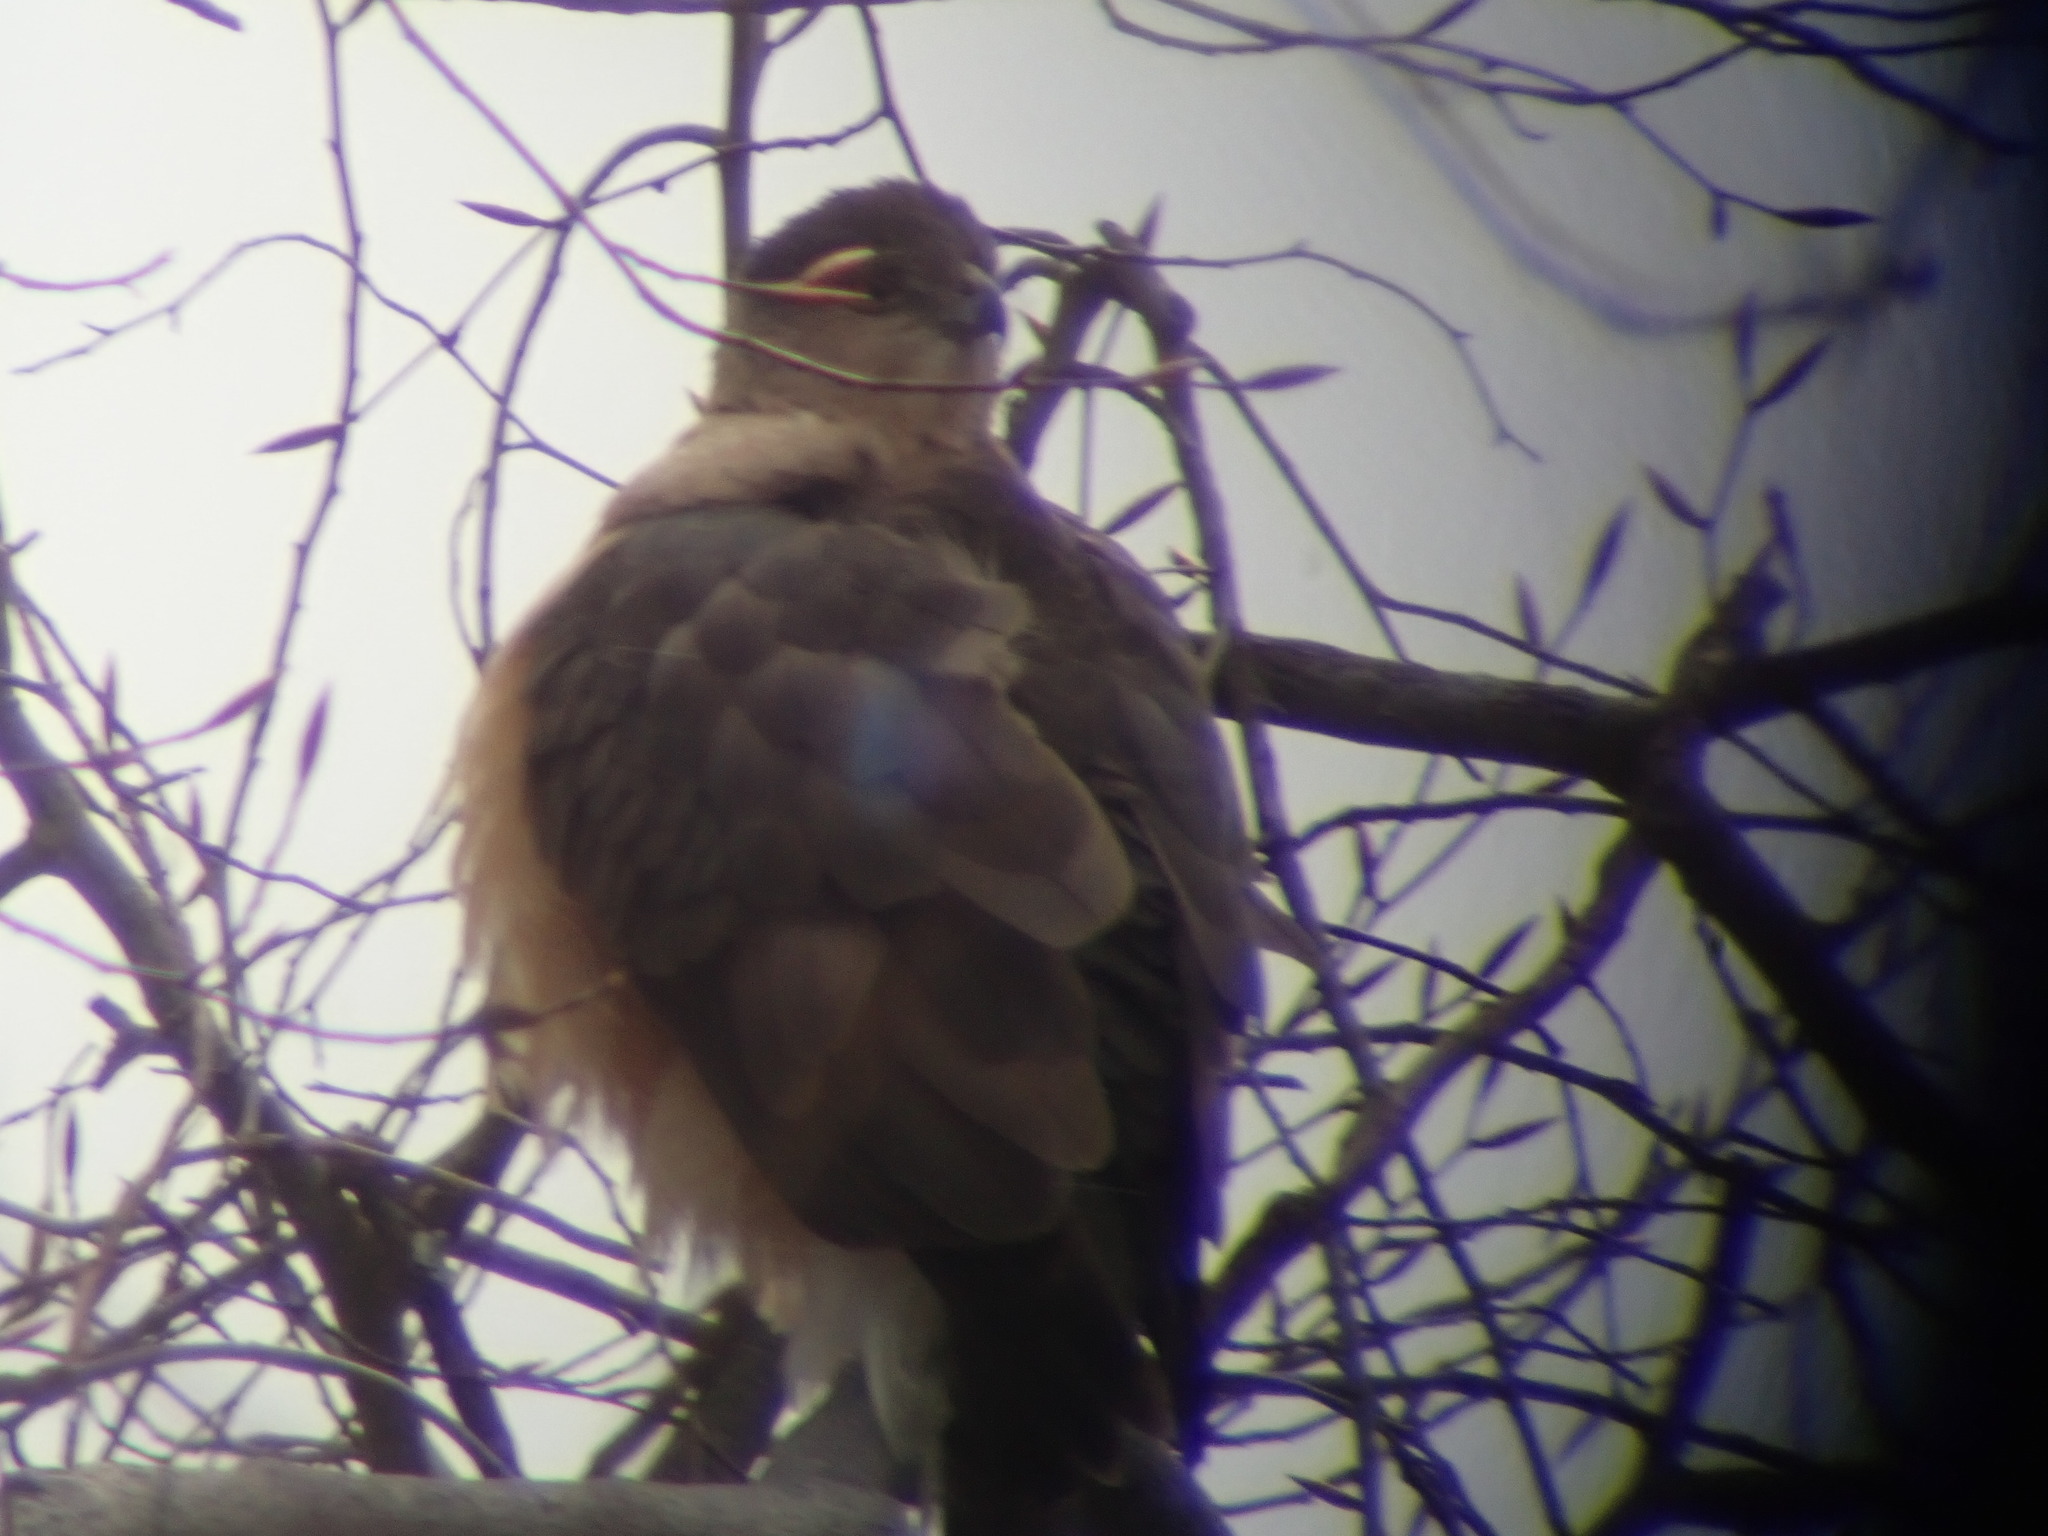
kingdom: Animalia
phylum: Chordata
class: Aves
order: Accipitriformes
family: Accipitridae
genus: Accipiter
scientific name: Accipiter cooperii
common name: Cooper's hawk
